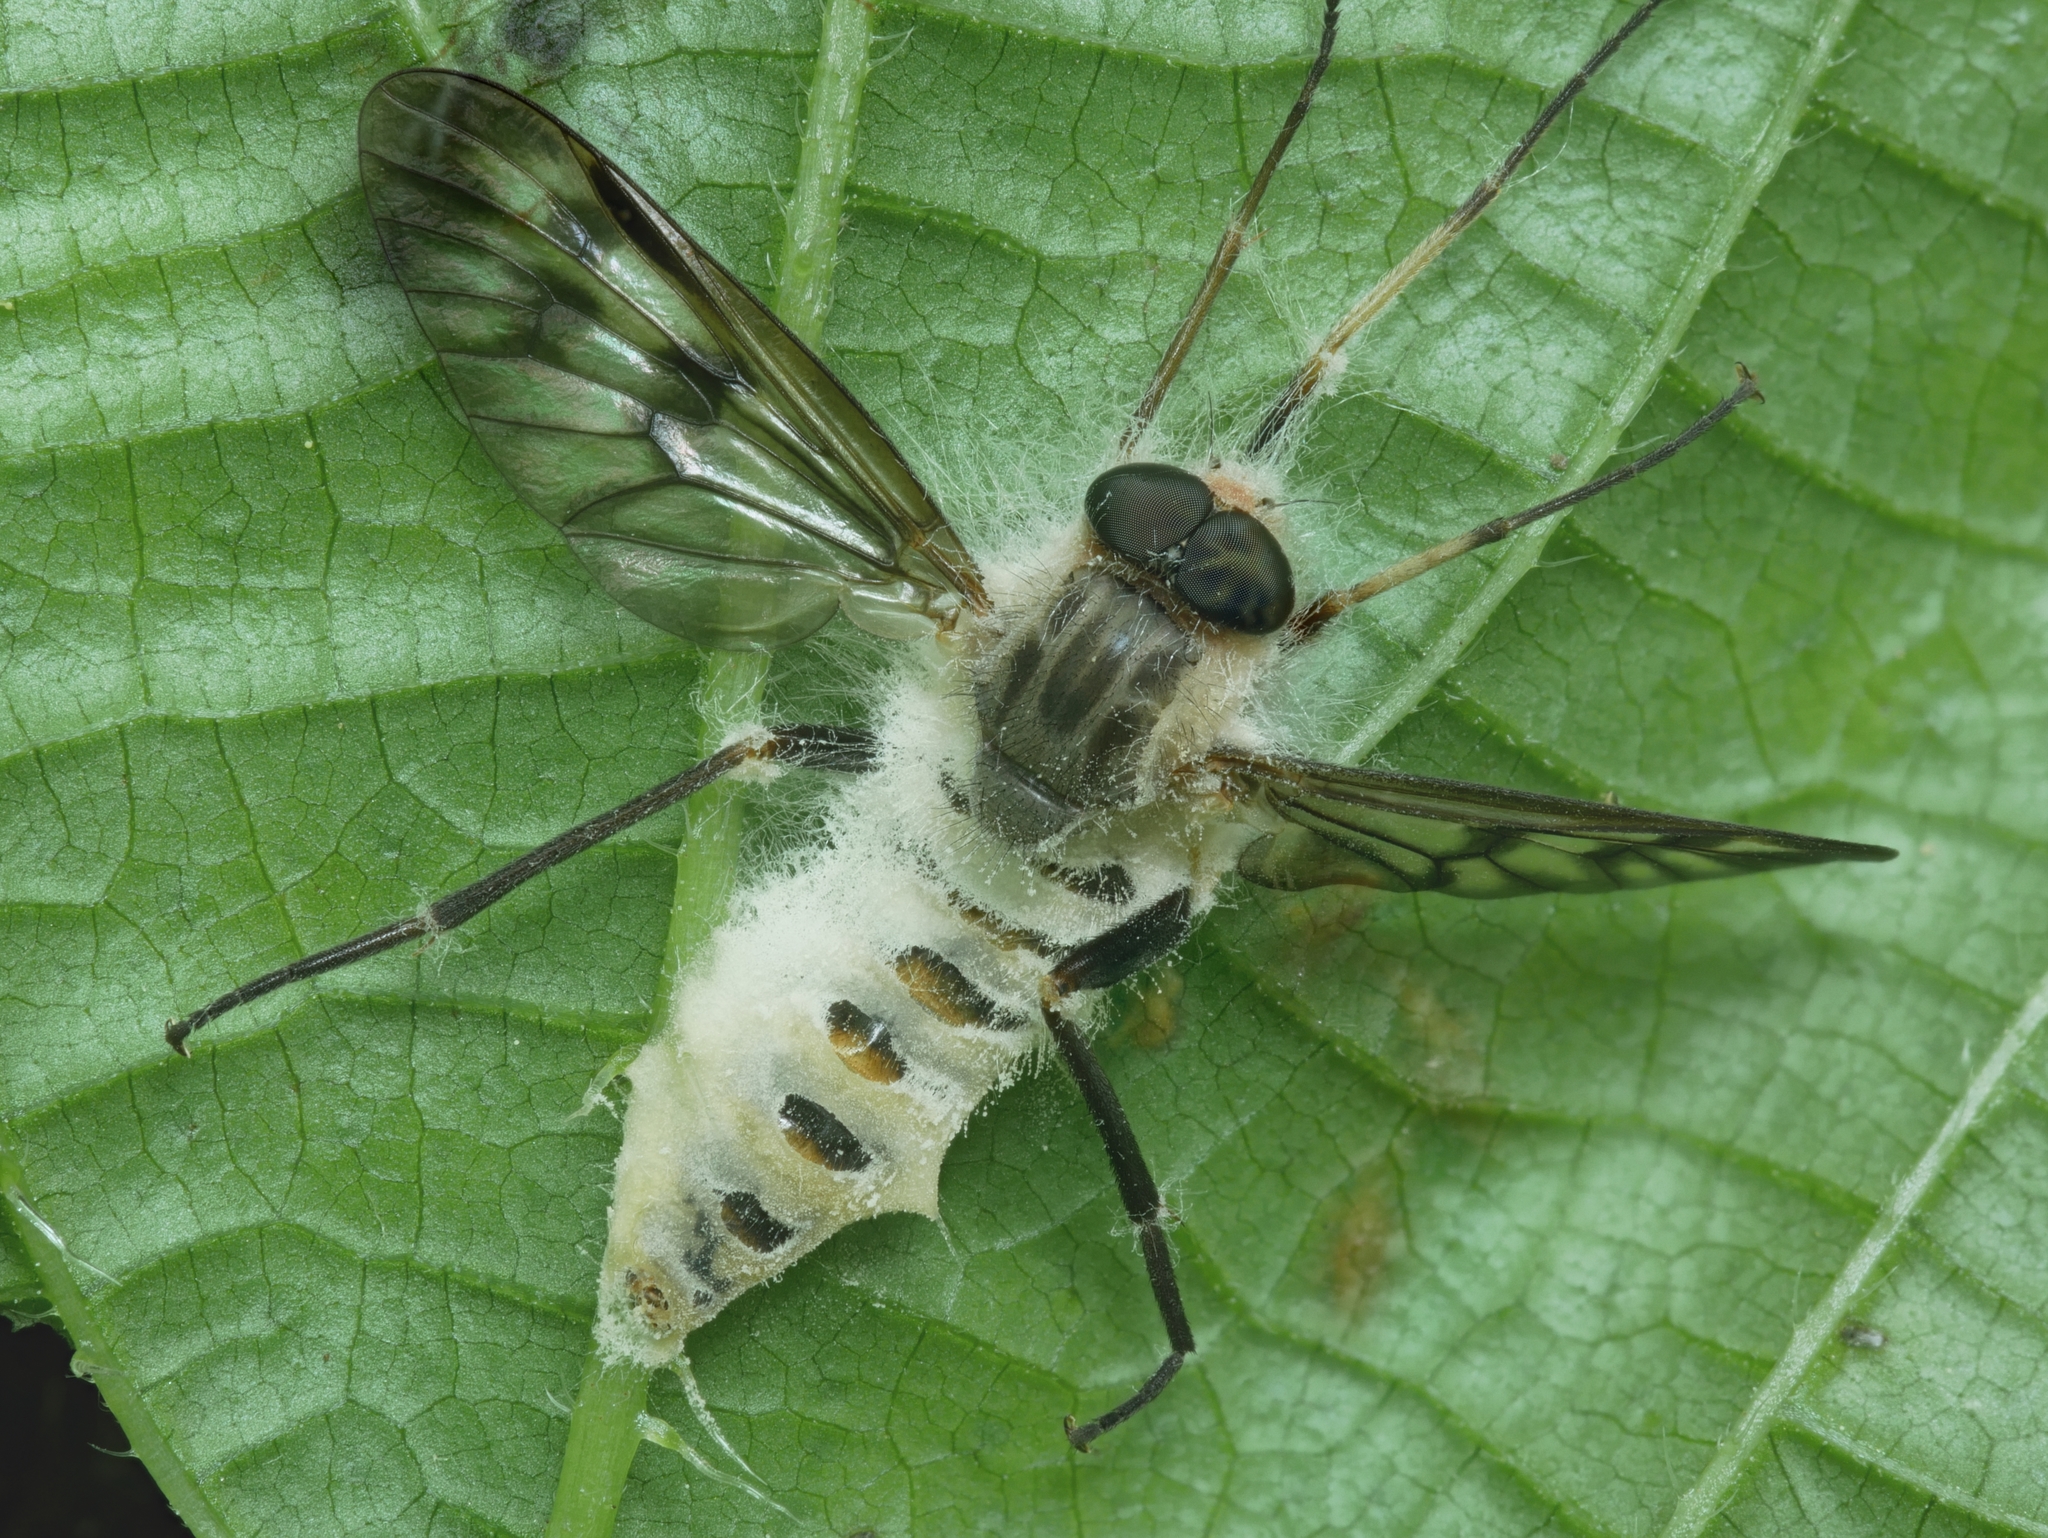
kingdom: Fungi
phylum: Entomophthoromycota
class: Entomophthoromycetes
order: Entomophthorales
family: Entomophthoraceae
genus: Furia
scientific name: Furia ithacensis
